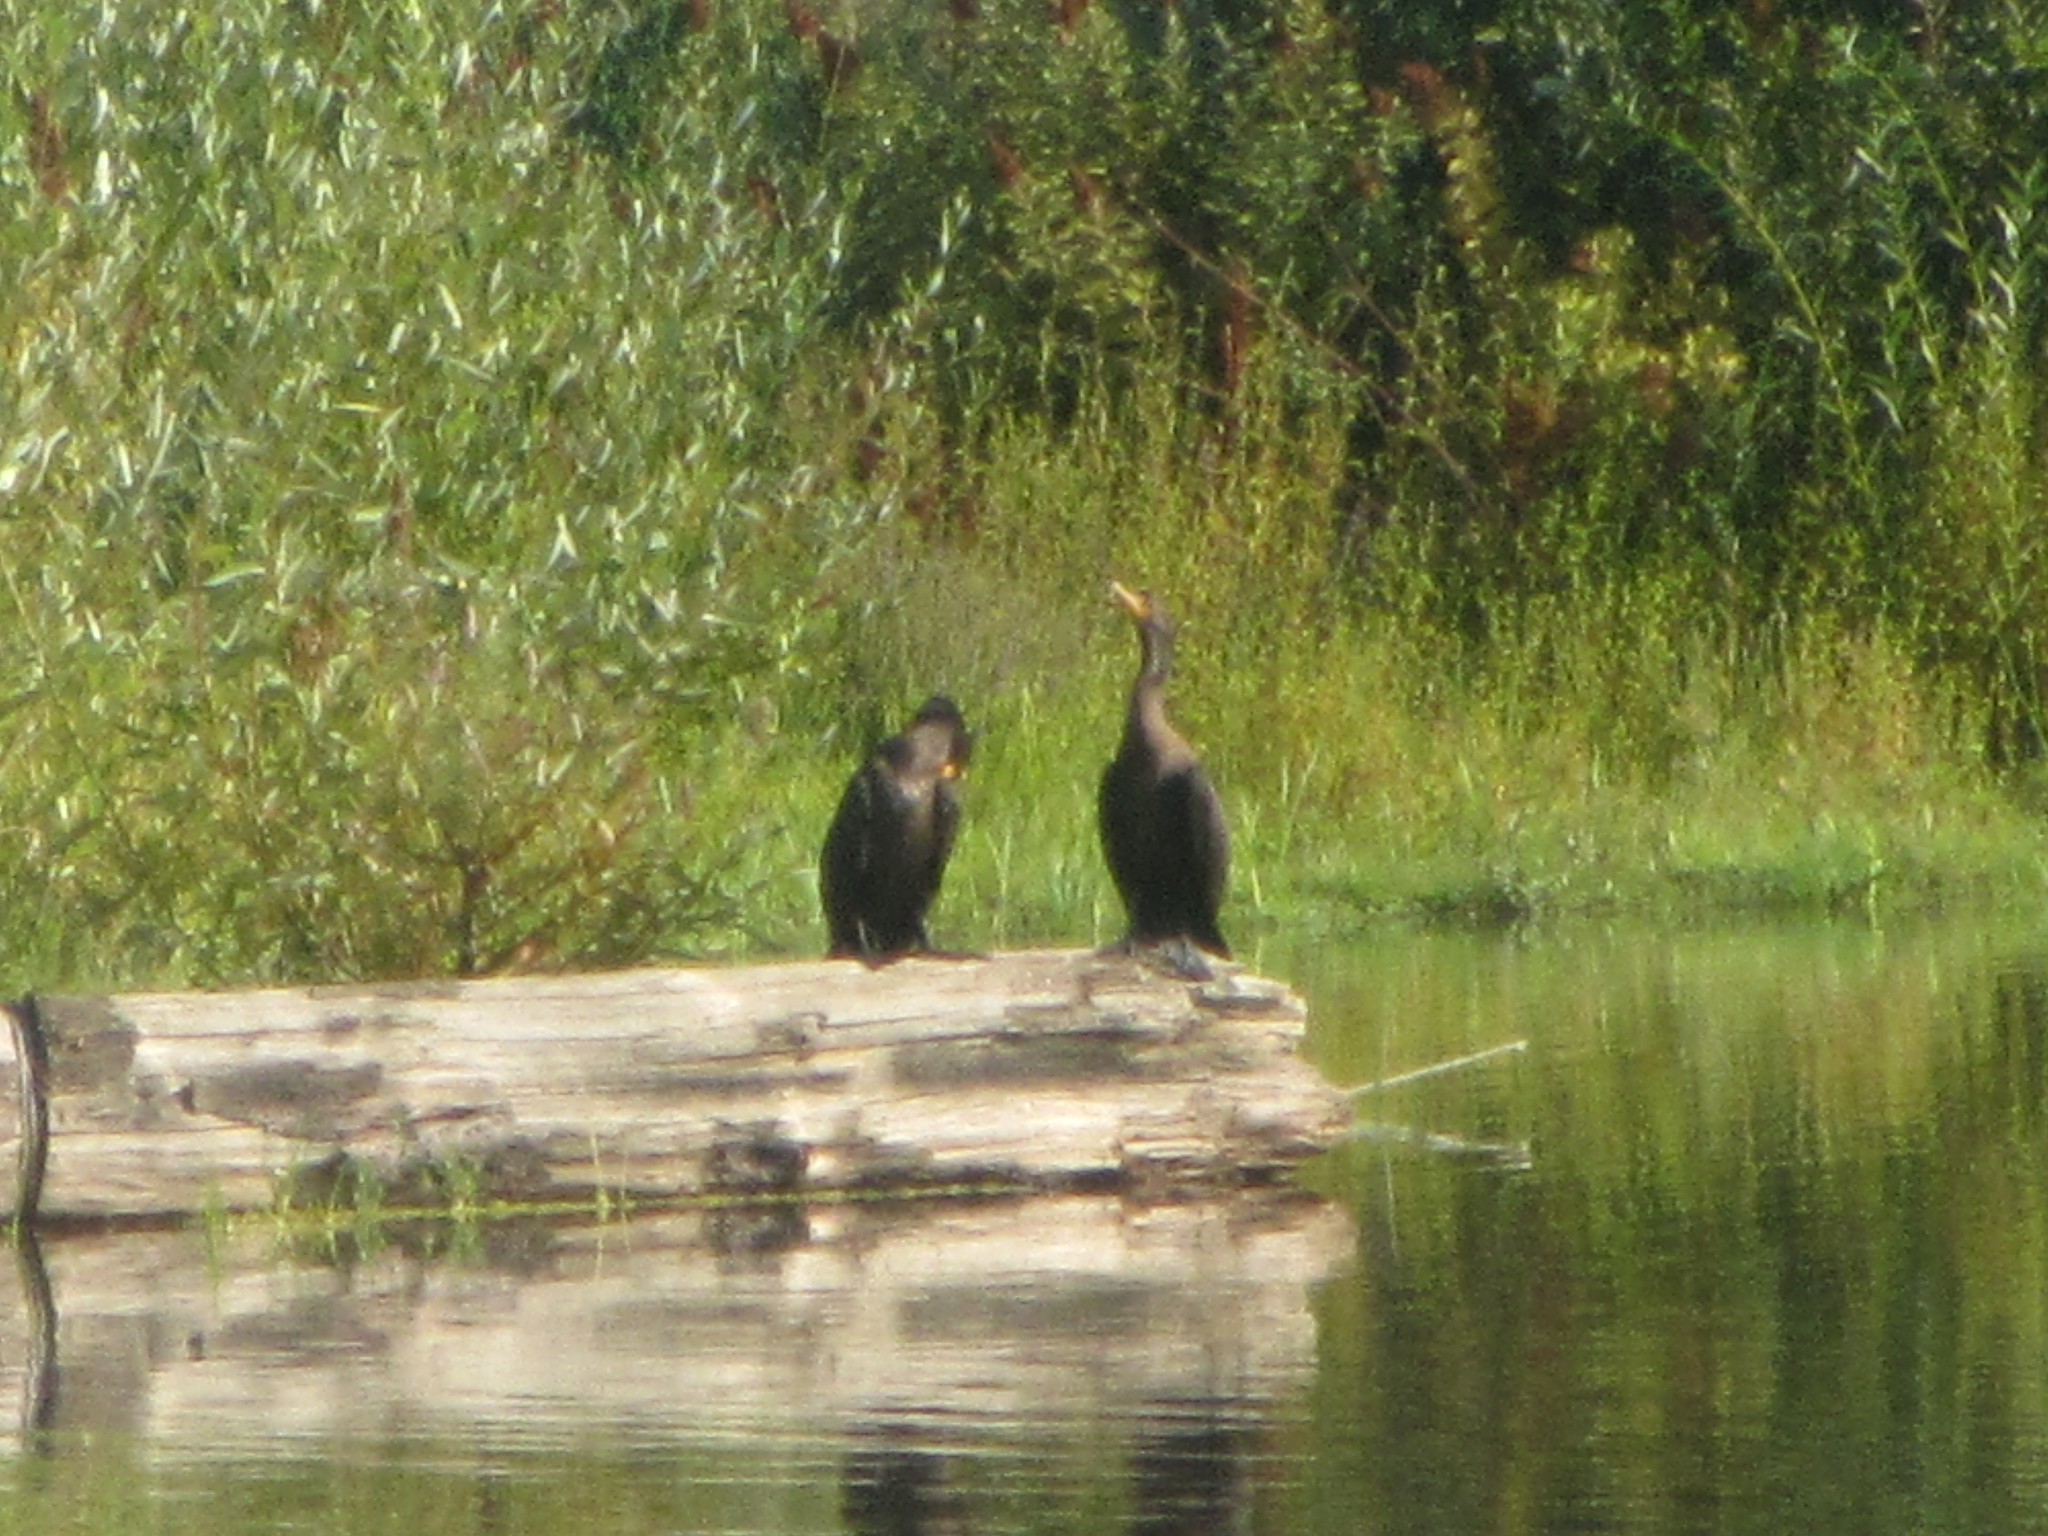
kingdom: Animalia
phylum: Chordata
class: Aves
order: Suliformes
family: Phalacrocoracidae
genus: Phalacrocorax
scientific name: Phalacrocorax auritus
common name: Double-crested cormorant
